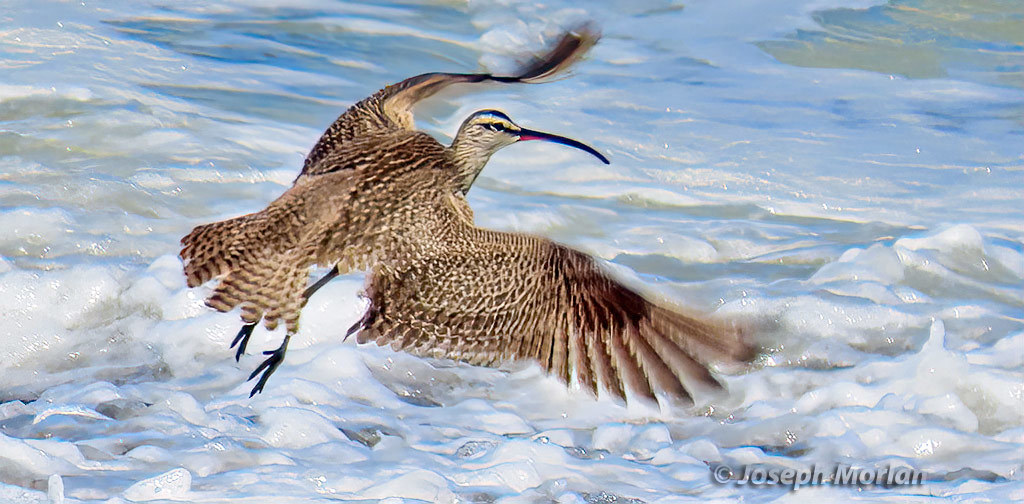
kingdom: Animalia
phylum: Chordata
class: Aves
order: Charadriiformes
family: Scolopacidae
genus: Numenius
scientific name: Numenius phaeopus
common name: Whimbrel
